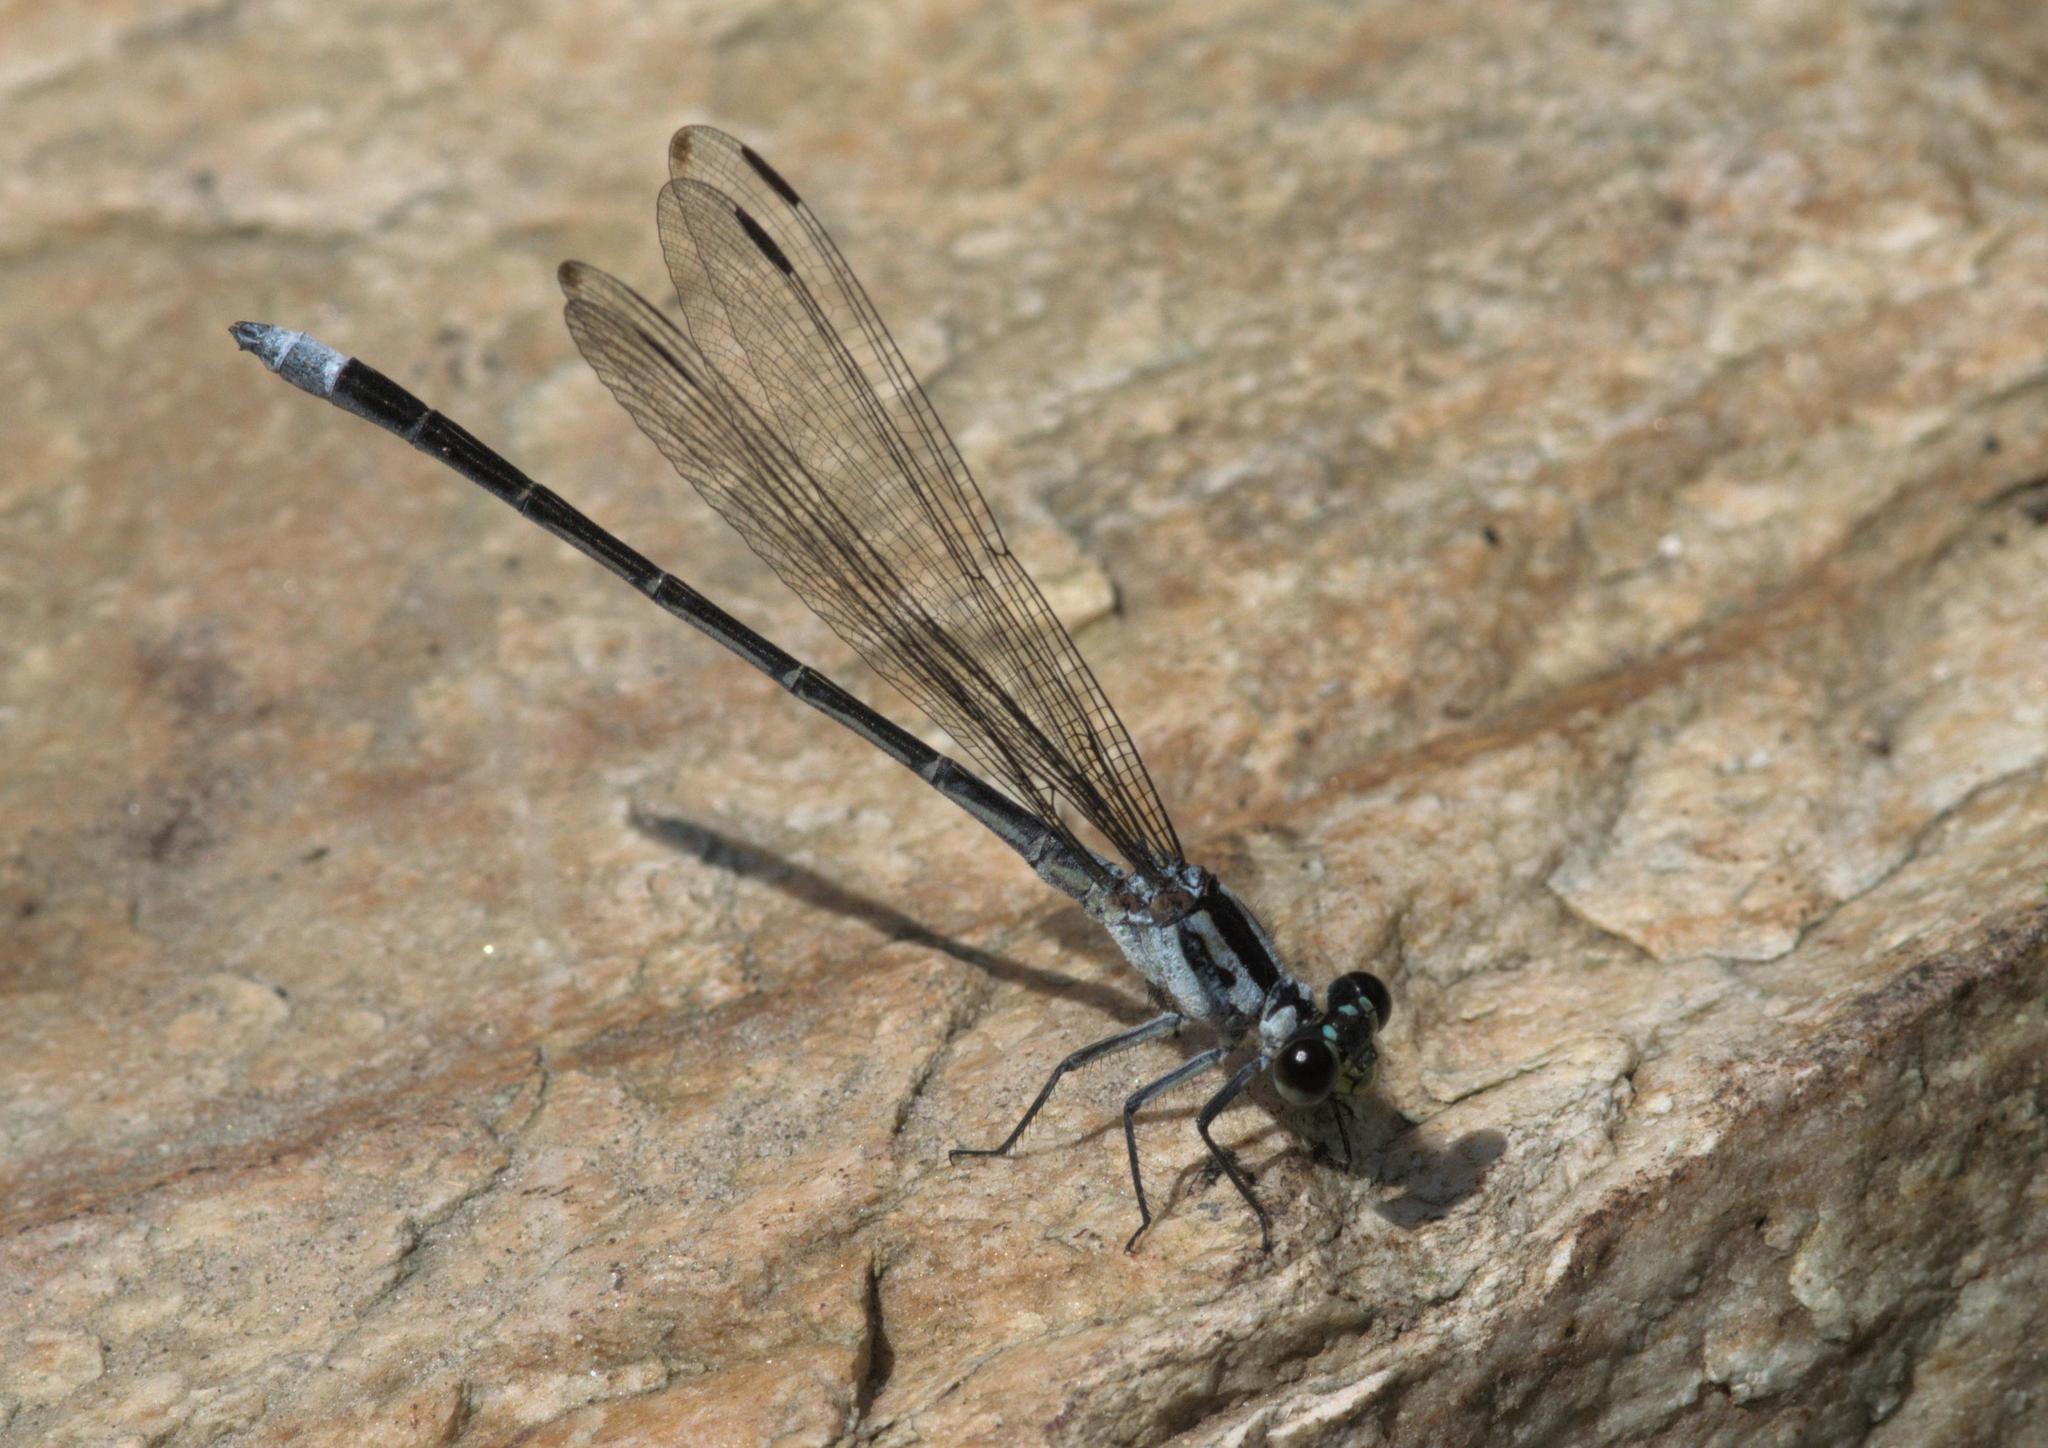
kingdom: Animalia
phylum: Arthropoda
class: Insecta
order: Odonata
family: Euphaeidae
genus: Anisopleura
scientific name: Anisopleura lestoides
